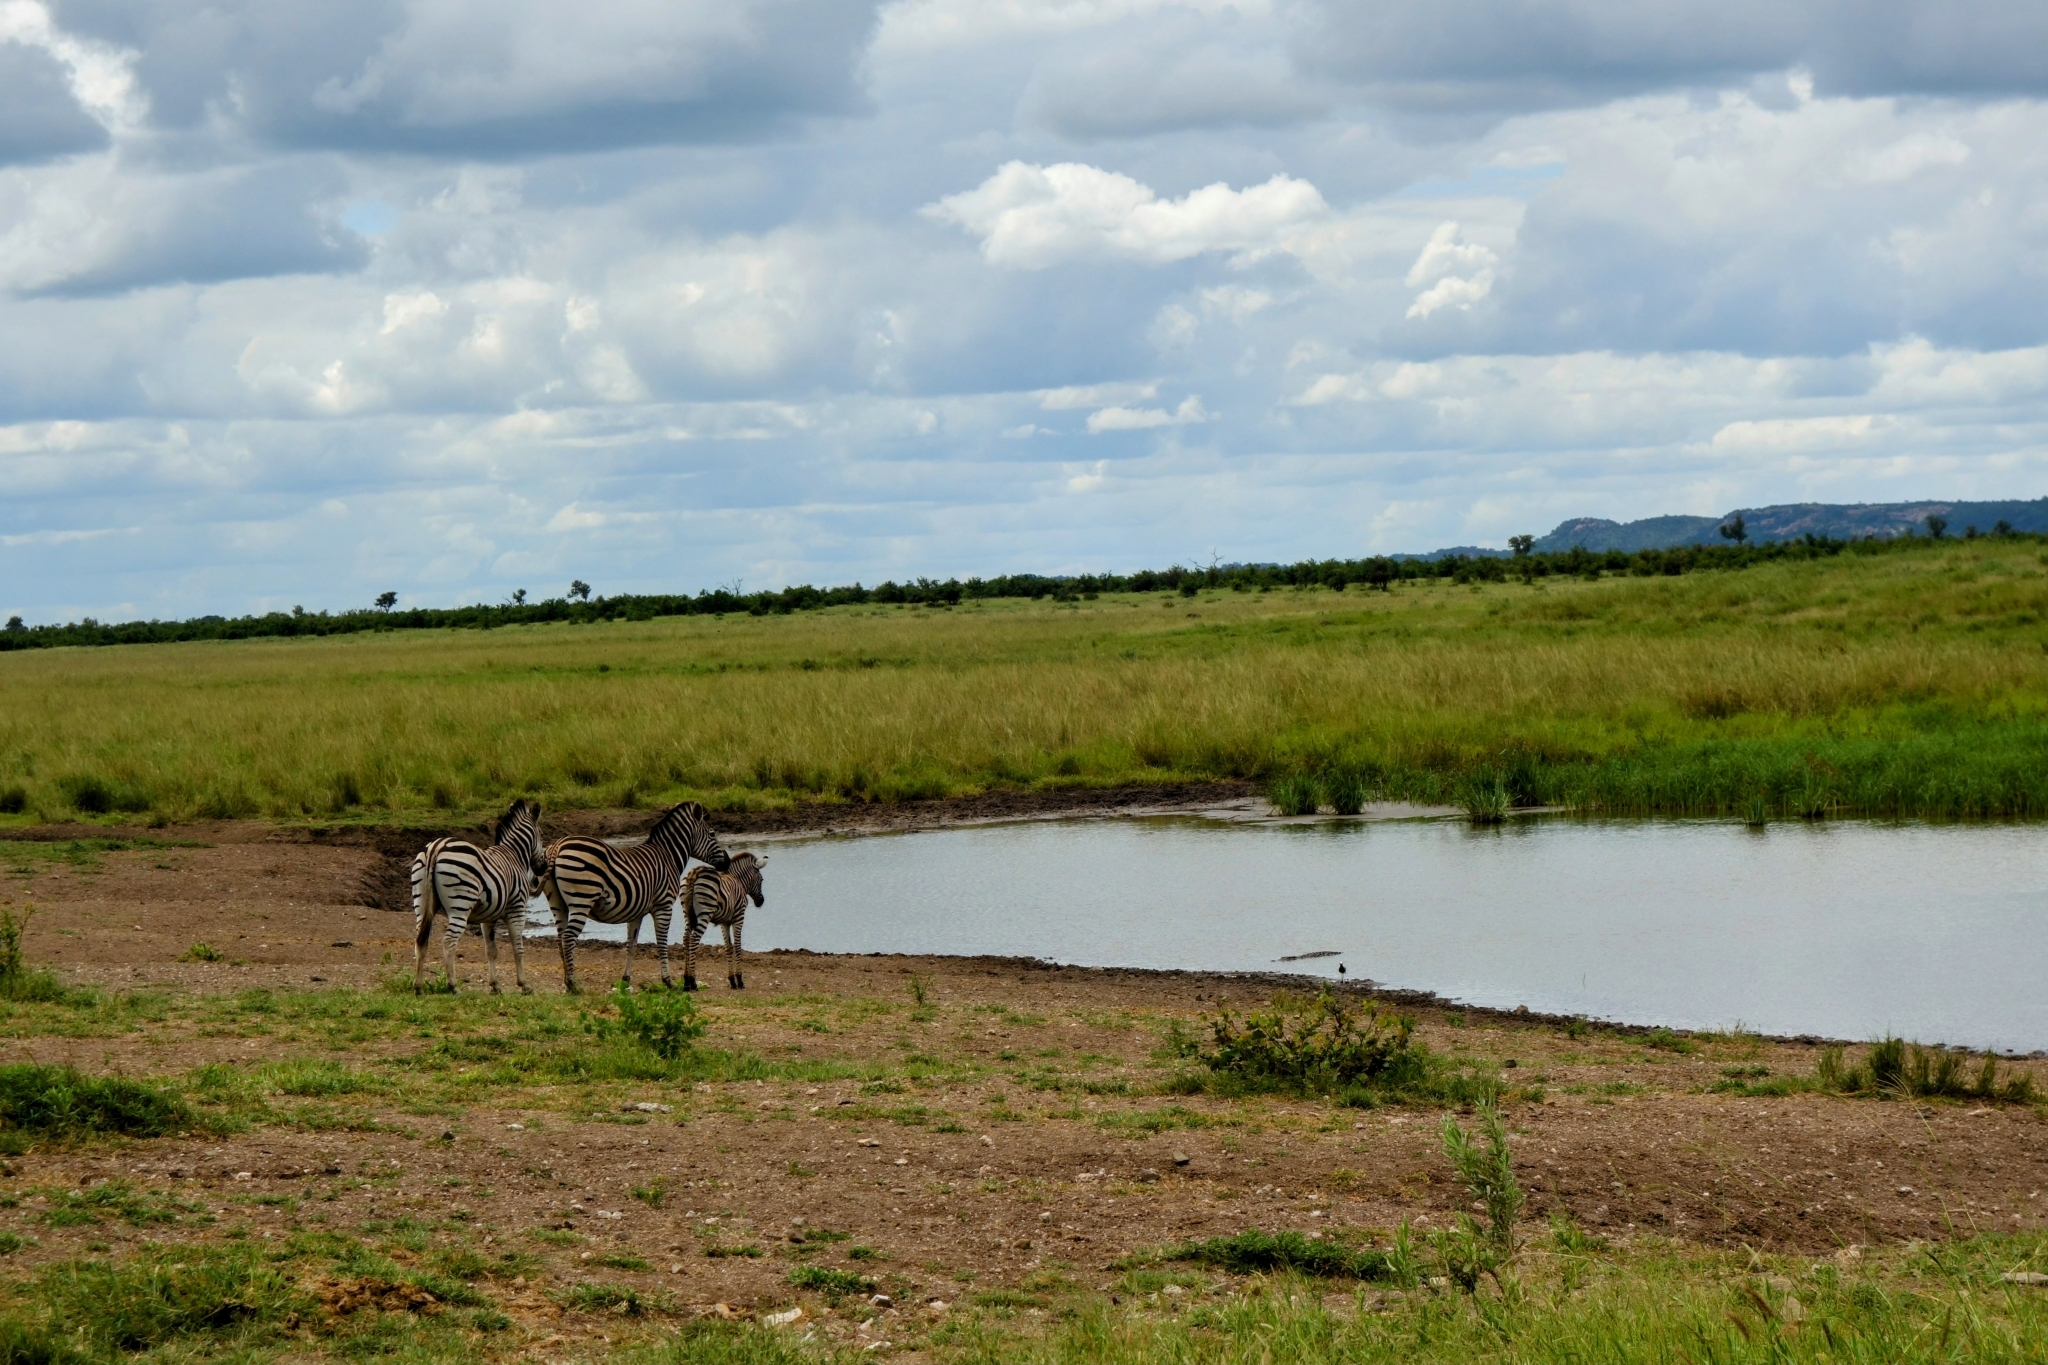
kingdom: Animalia
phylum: Chordata
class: Mammalia
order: Perissodactyla
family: Equidae
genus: Equus
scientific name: Equus quagga
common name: Plains zebra
